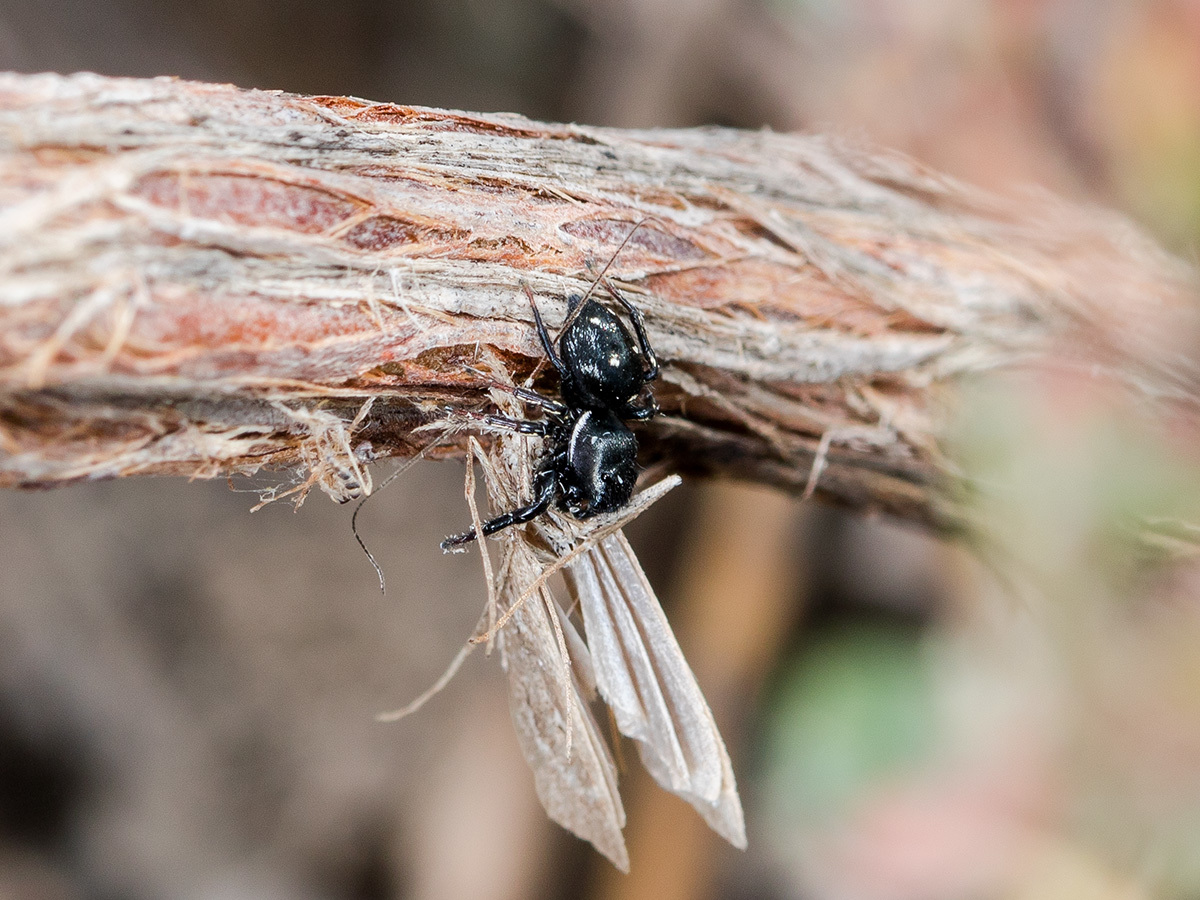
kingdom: Animalia
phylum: Arthropoda
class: Arachnida
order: Araneae
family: Salticidae
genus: Heliophanus
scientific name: Heliophanus chovdensis
